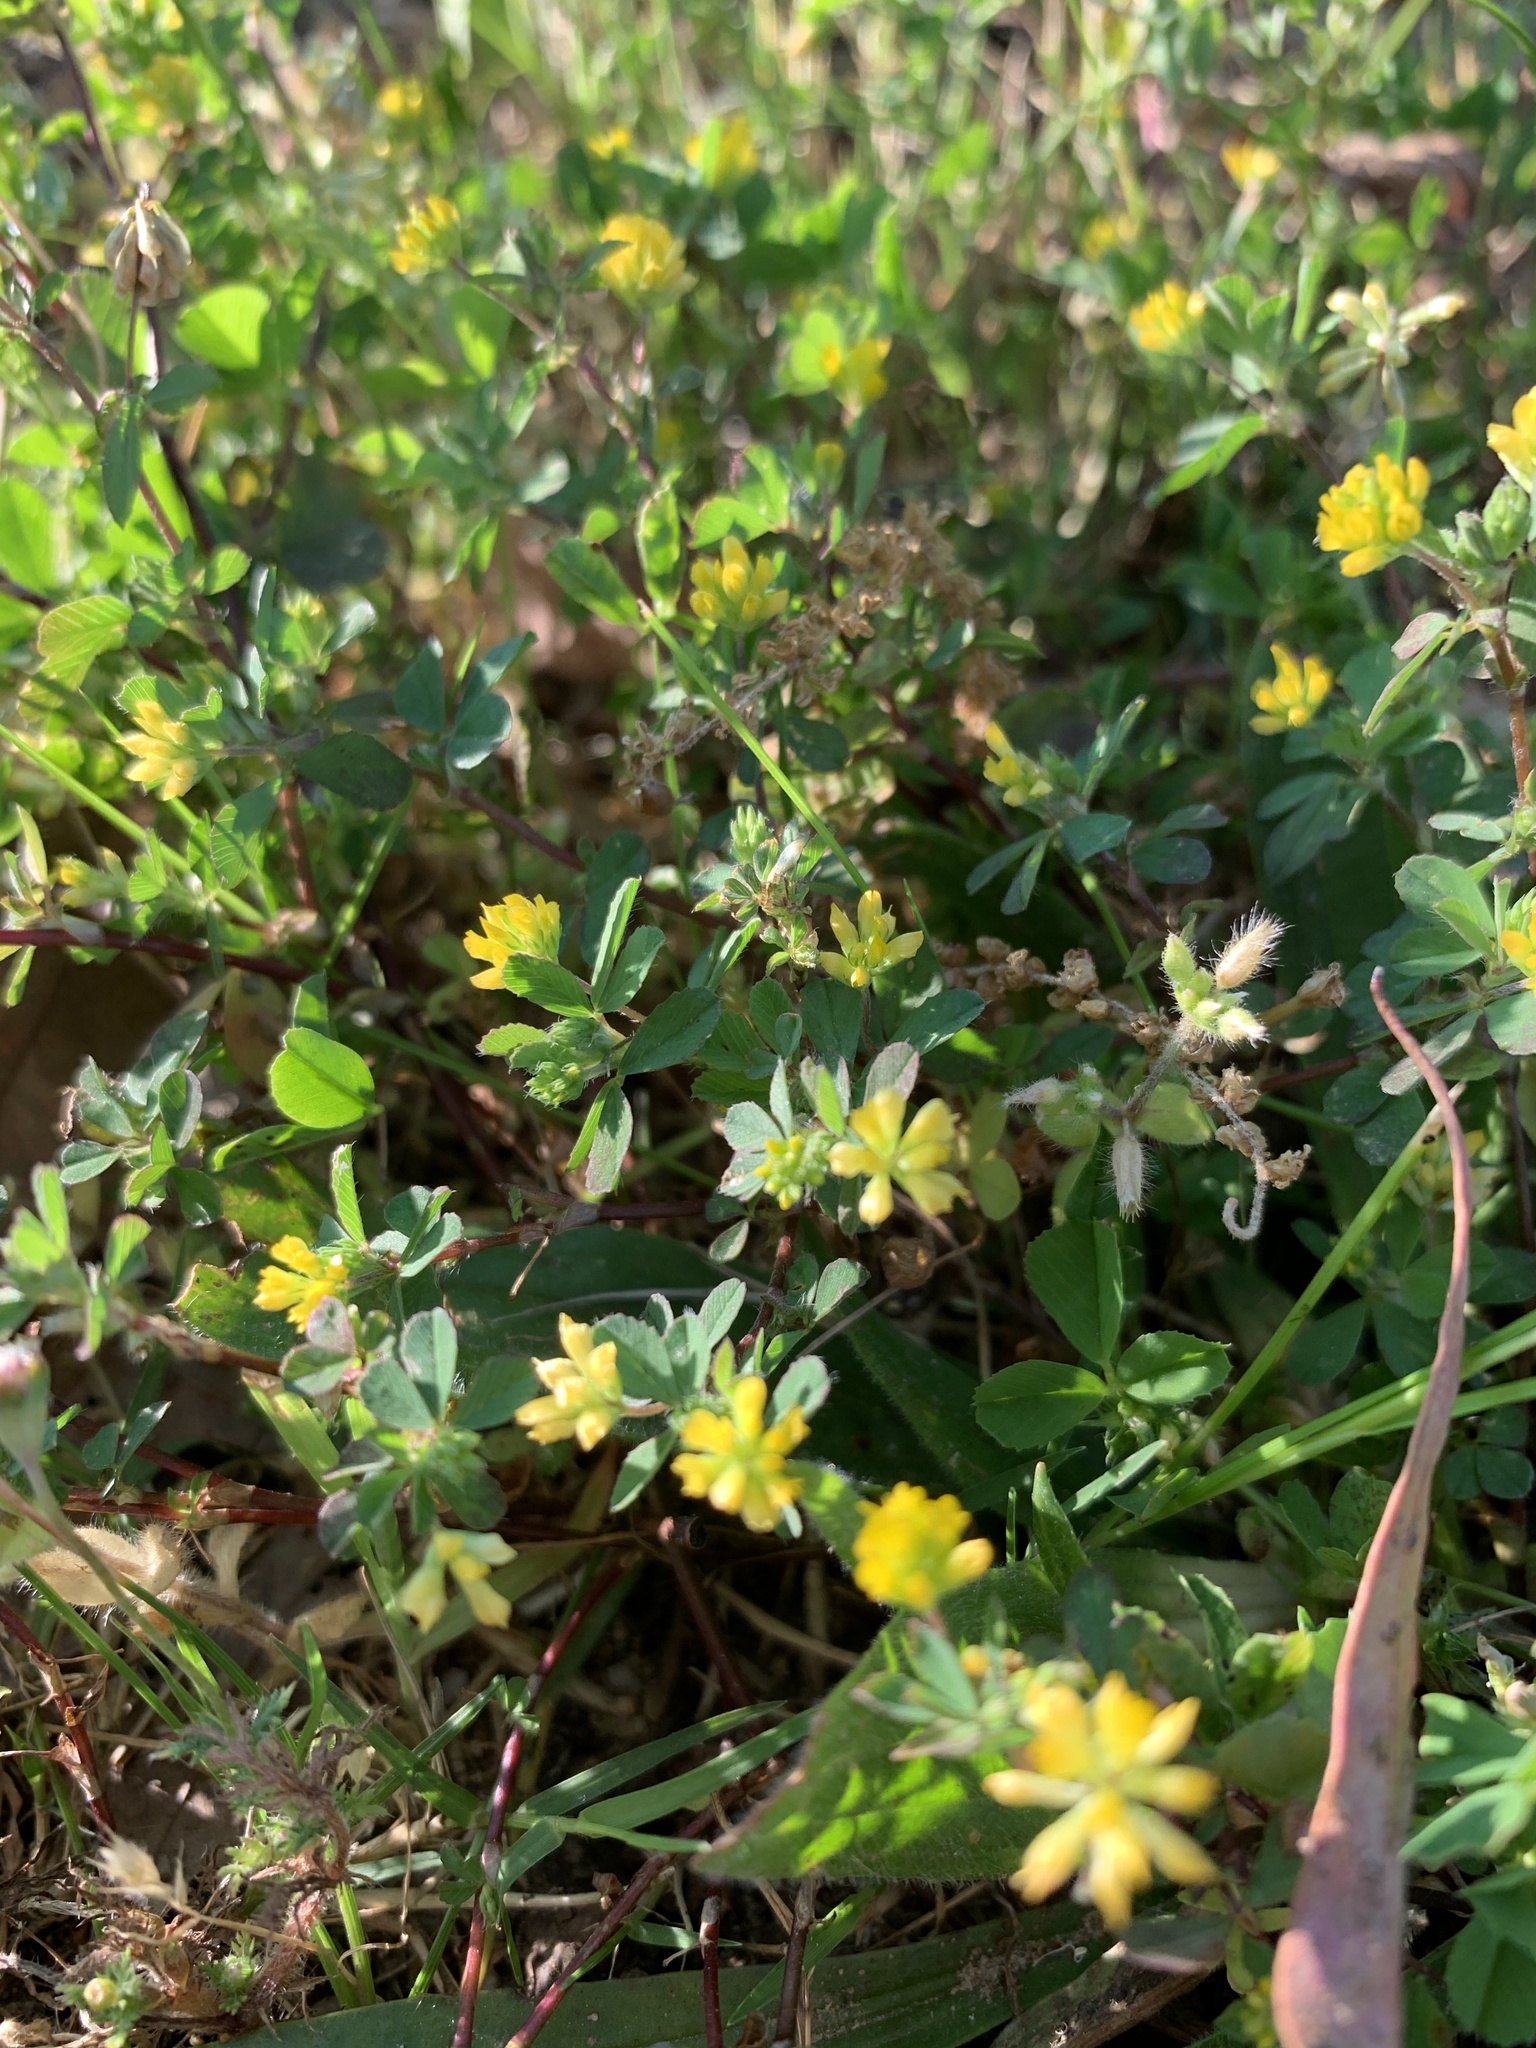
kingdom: Plantae
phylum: Tracheophyta
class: Magnoliopsida
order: Fabales
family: Fabaceae
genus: Trifolium
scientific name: Trifolium dubium
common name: Suckling clover
